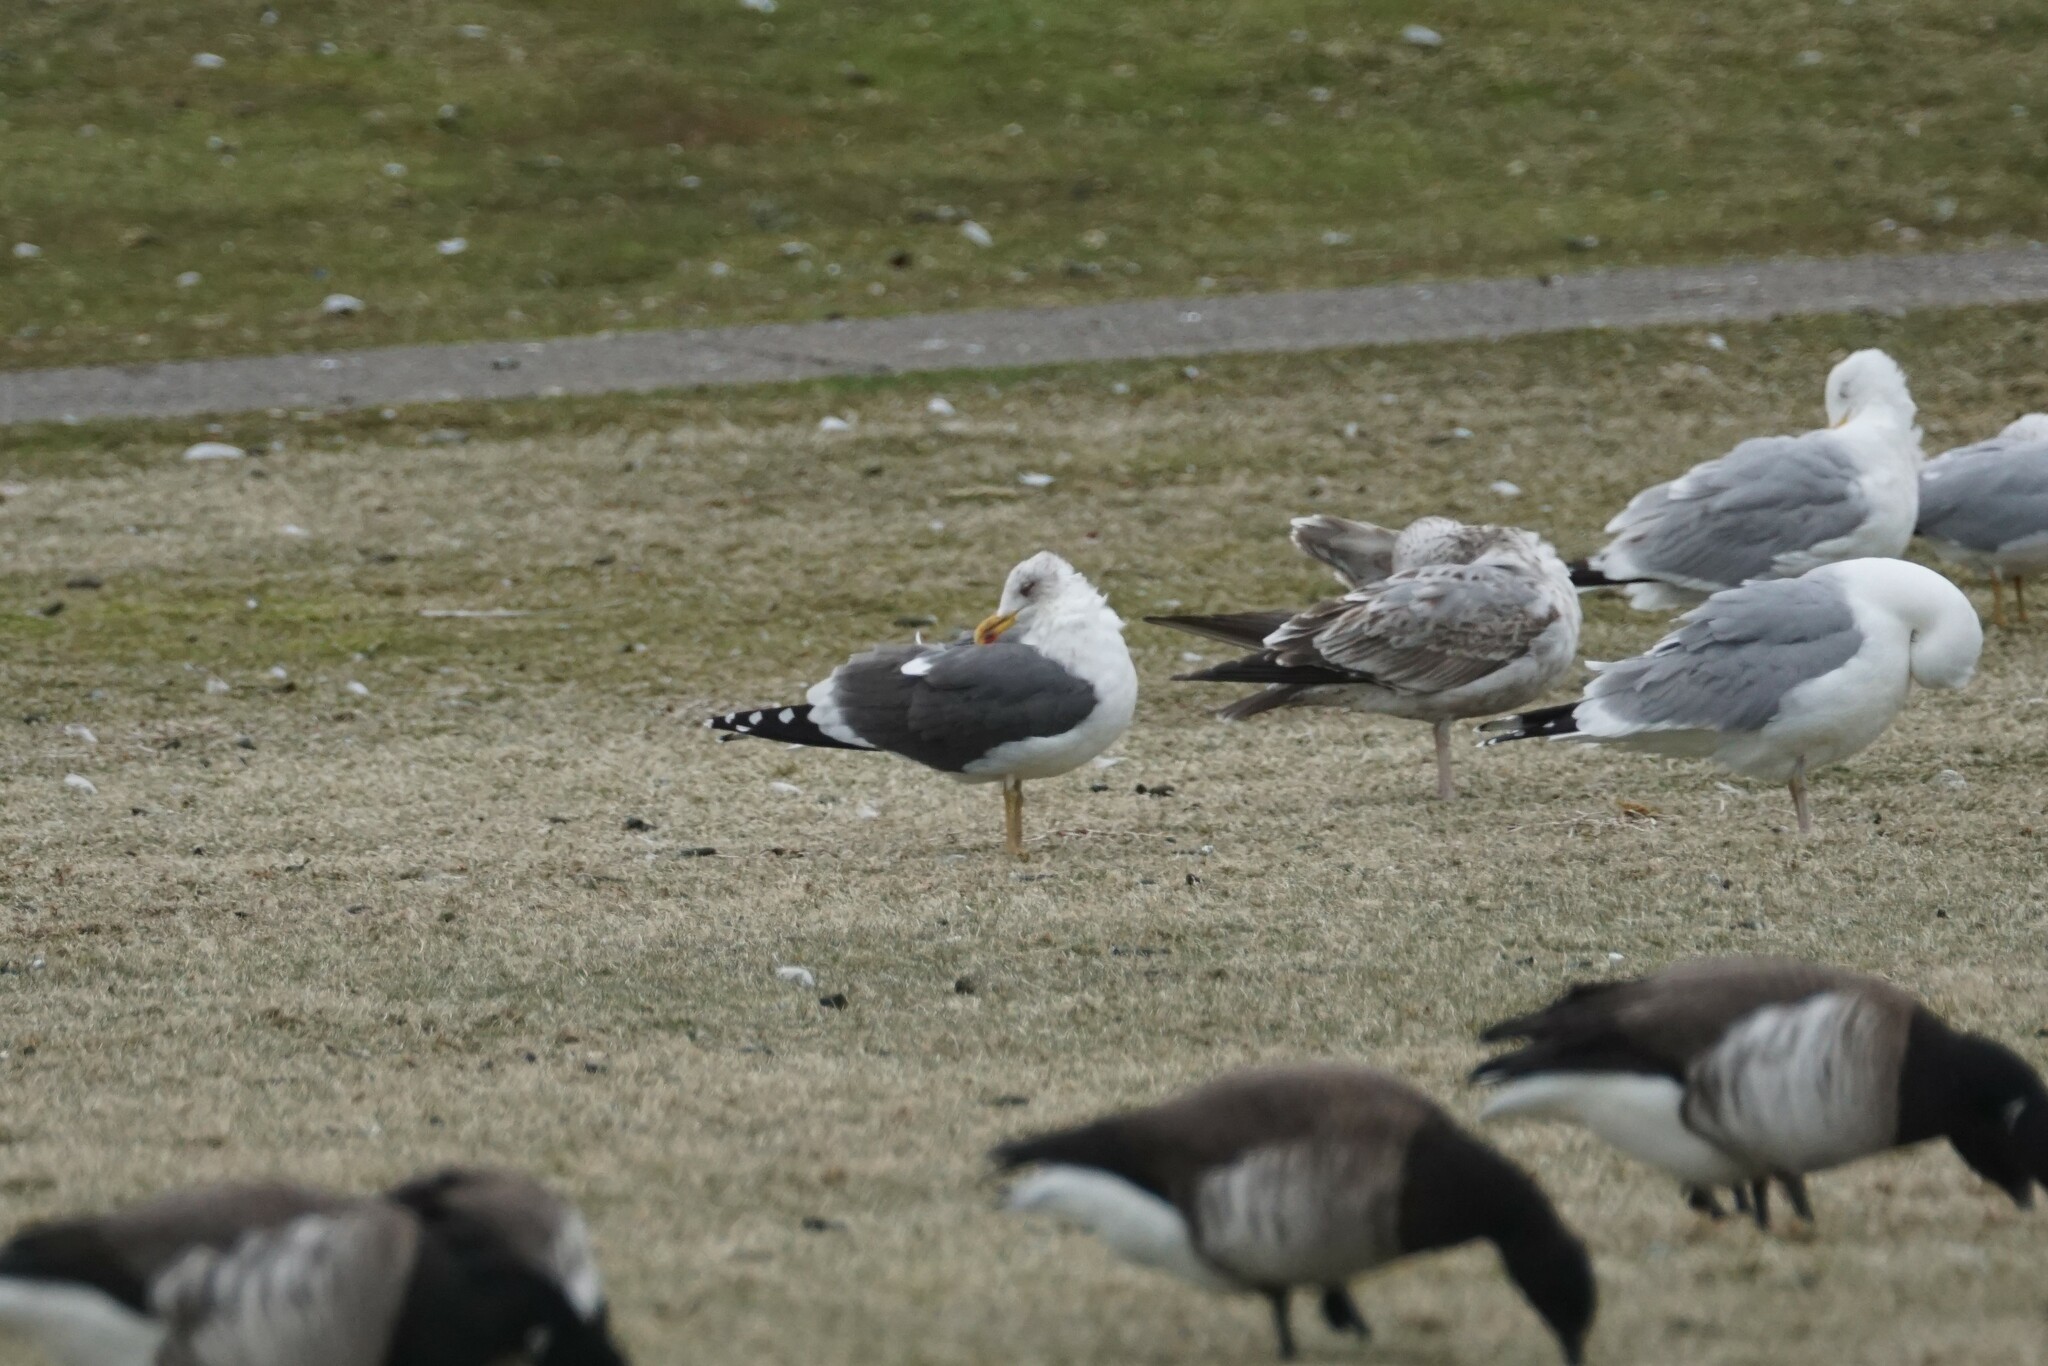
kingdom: Animalia
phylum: Chordata
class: Aves
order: Charadriiformes
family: Laridae
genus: Larus
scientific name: Larus fuscus
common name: Lesser black-backed gull
